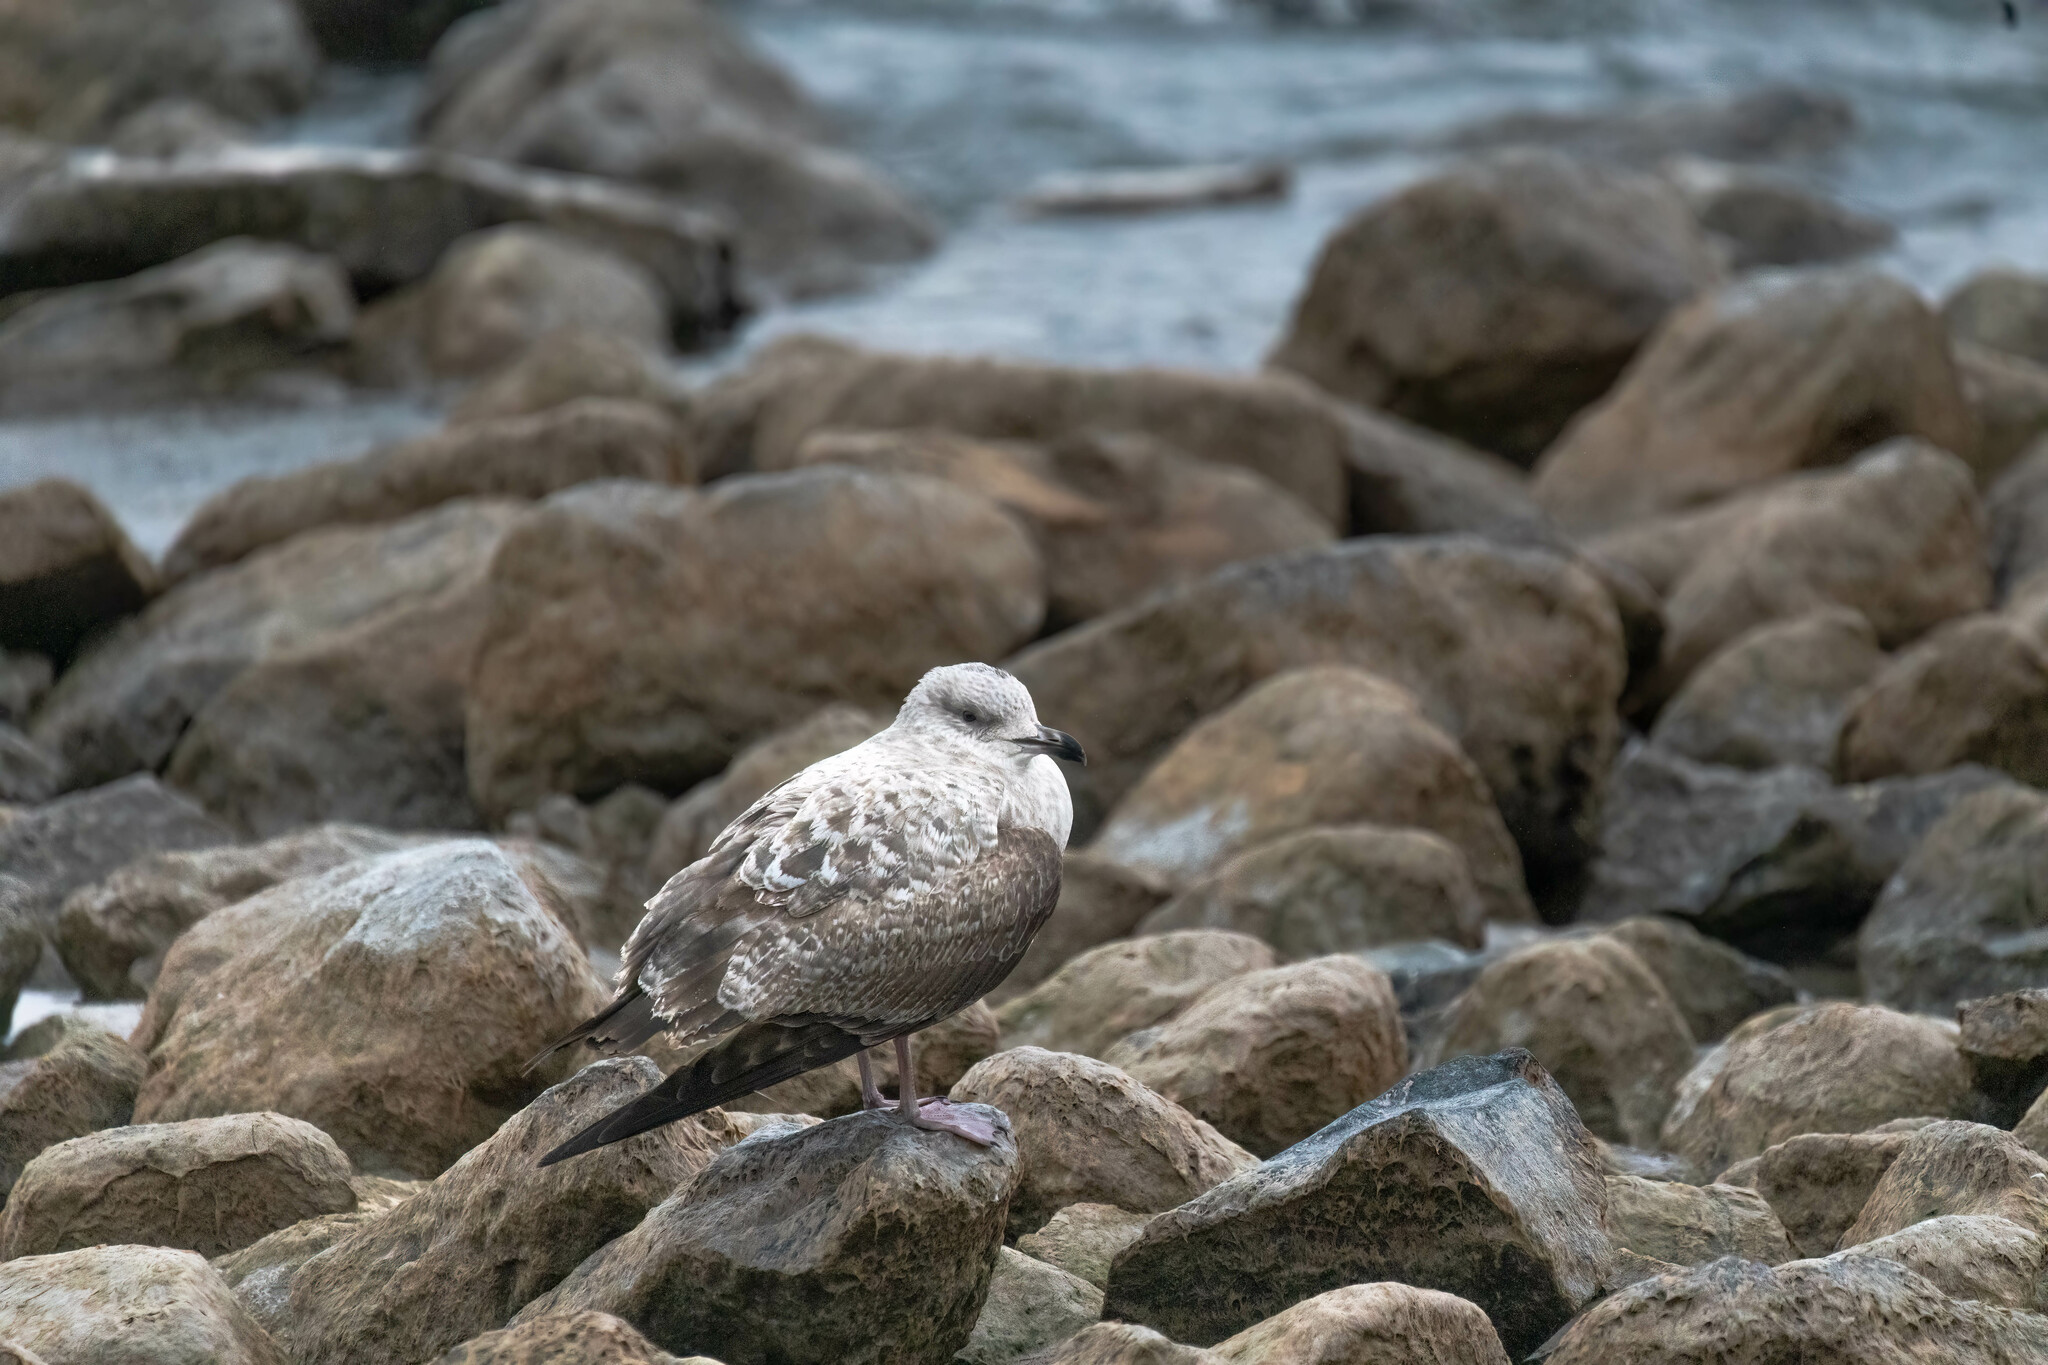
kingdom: Animalia
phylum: Chordata
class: Aves
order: Charadriiformes
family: Laridae
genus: Larus
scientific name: Larus argentatus
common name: Herring gull
